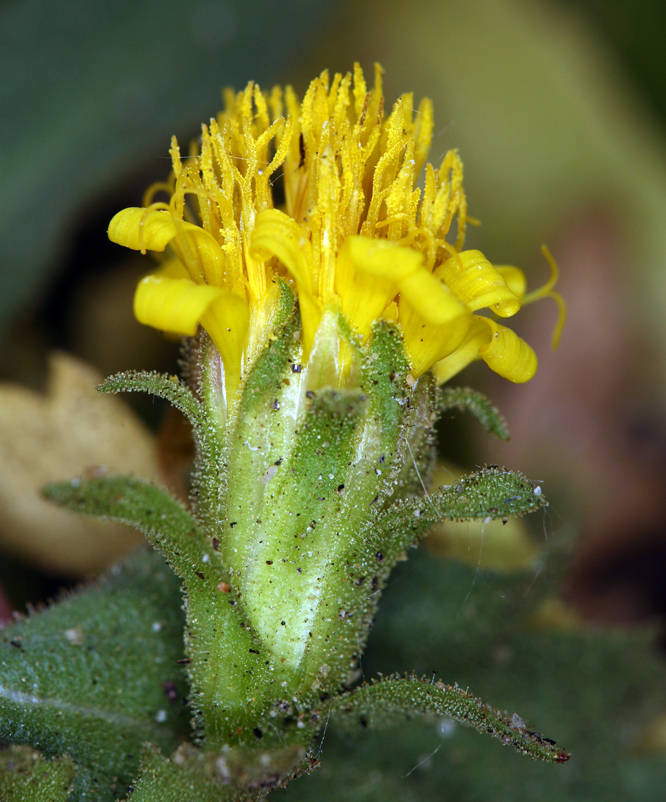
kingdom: Plantae
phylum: Tracheophyta
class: Magnoliopsida
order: Asterales
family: Asteraceae
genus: Toiyabea
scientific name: Toiyabea peirsonii
